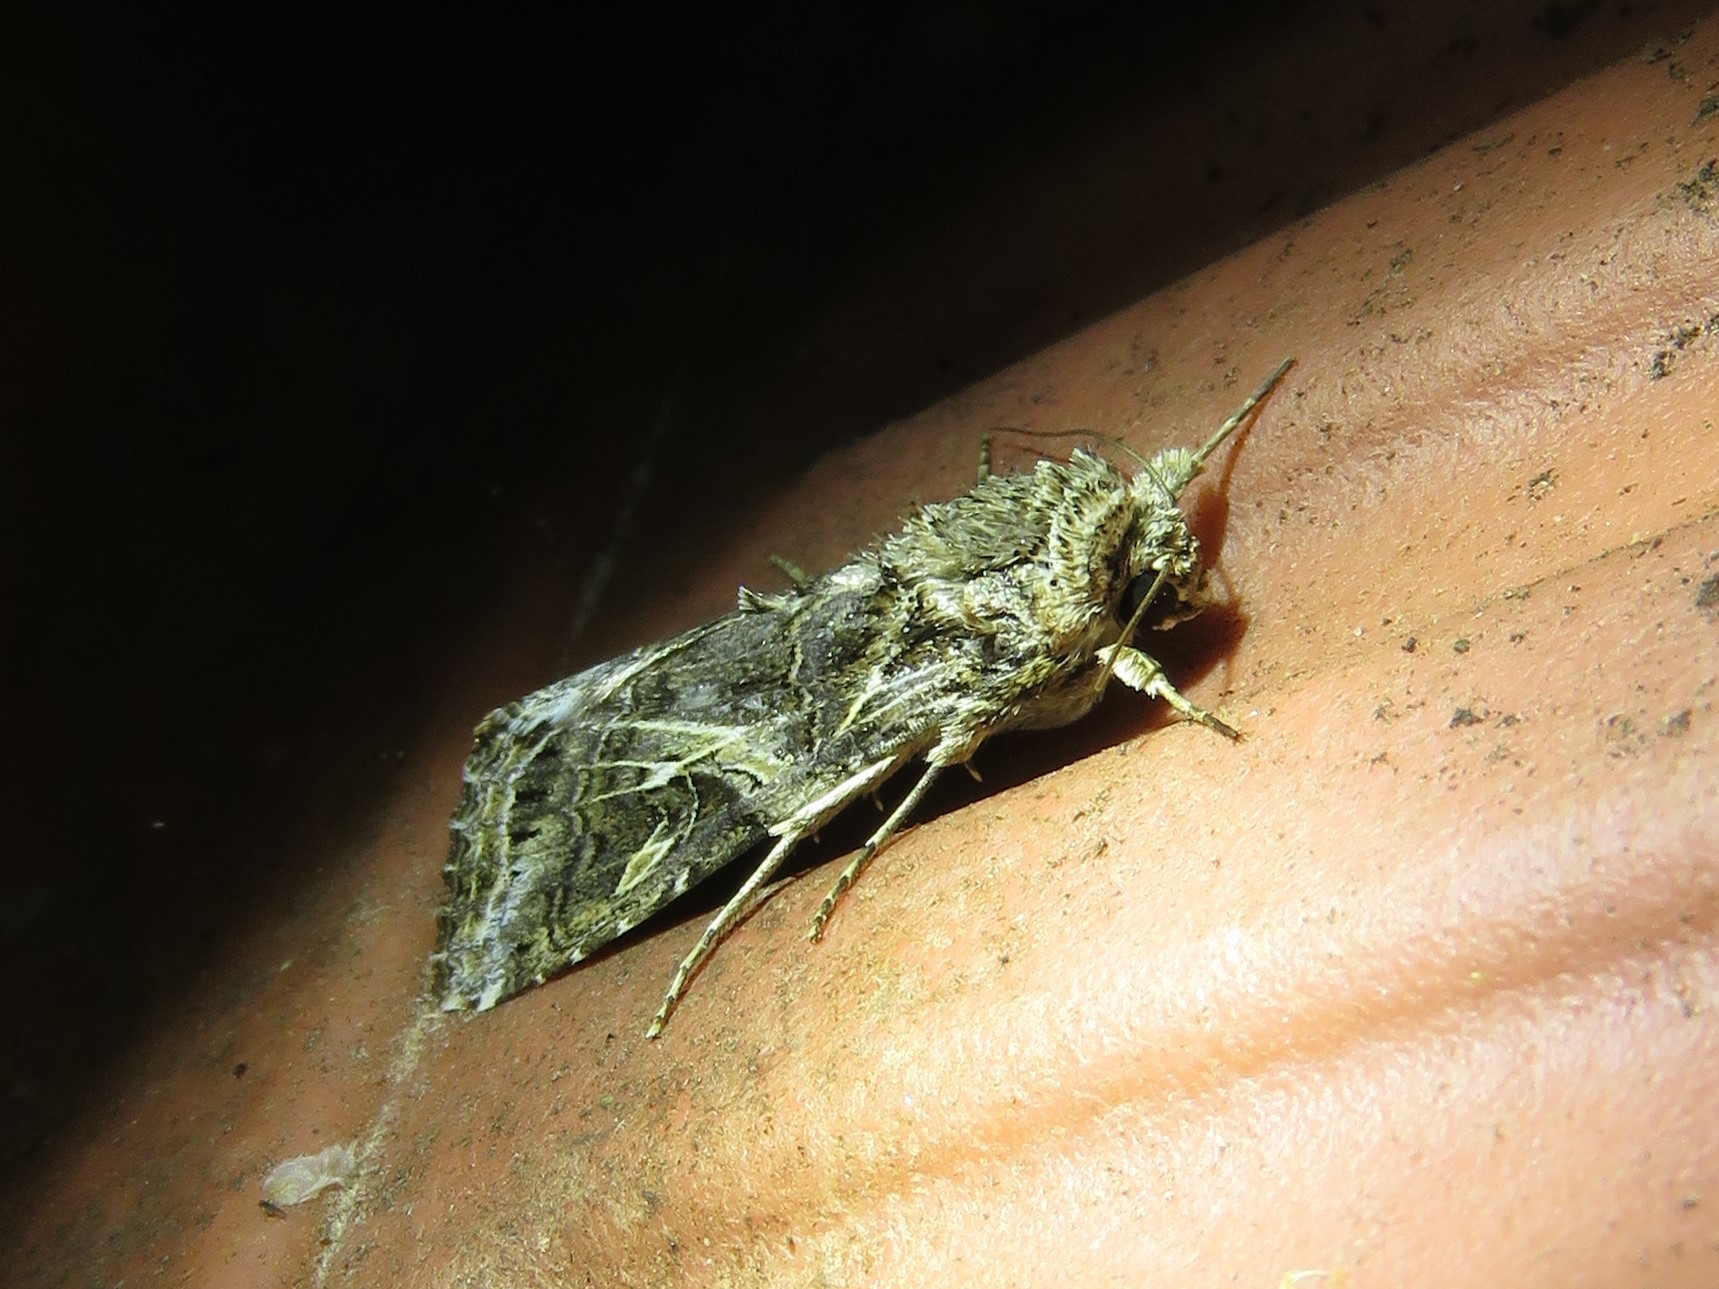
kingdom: Animalia
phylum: Arthropoda
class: Insecta
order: Lepidoptera
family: Noctuidae
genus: Spodoptera
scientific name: Spodoptera ornithogalli
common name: Yellow-striped armyworm
